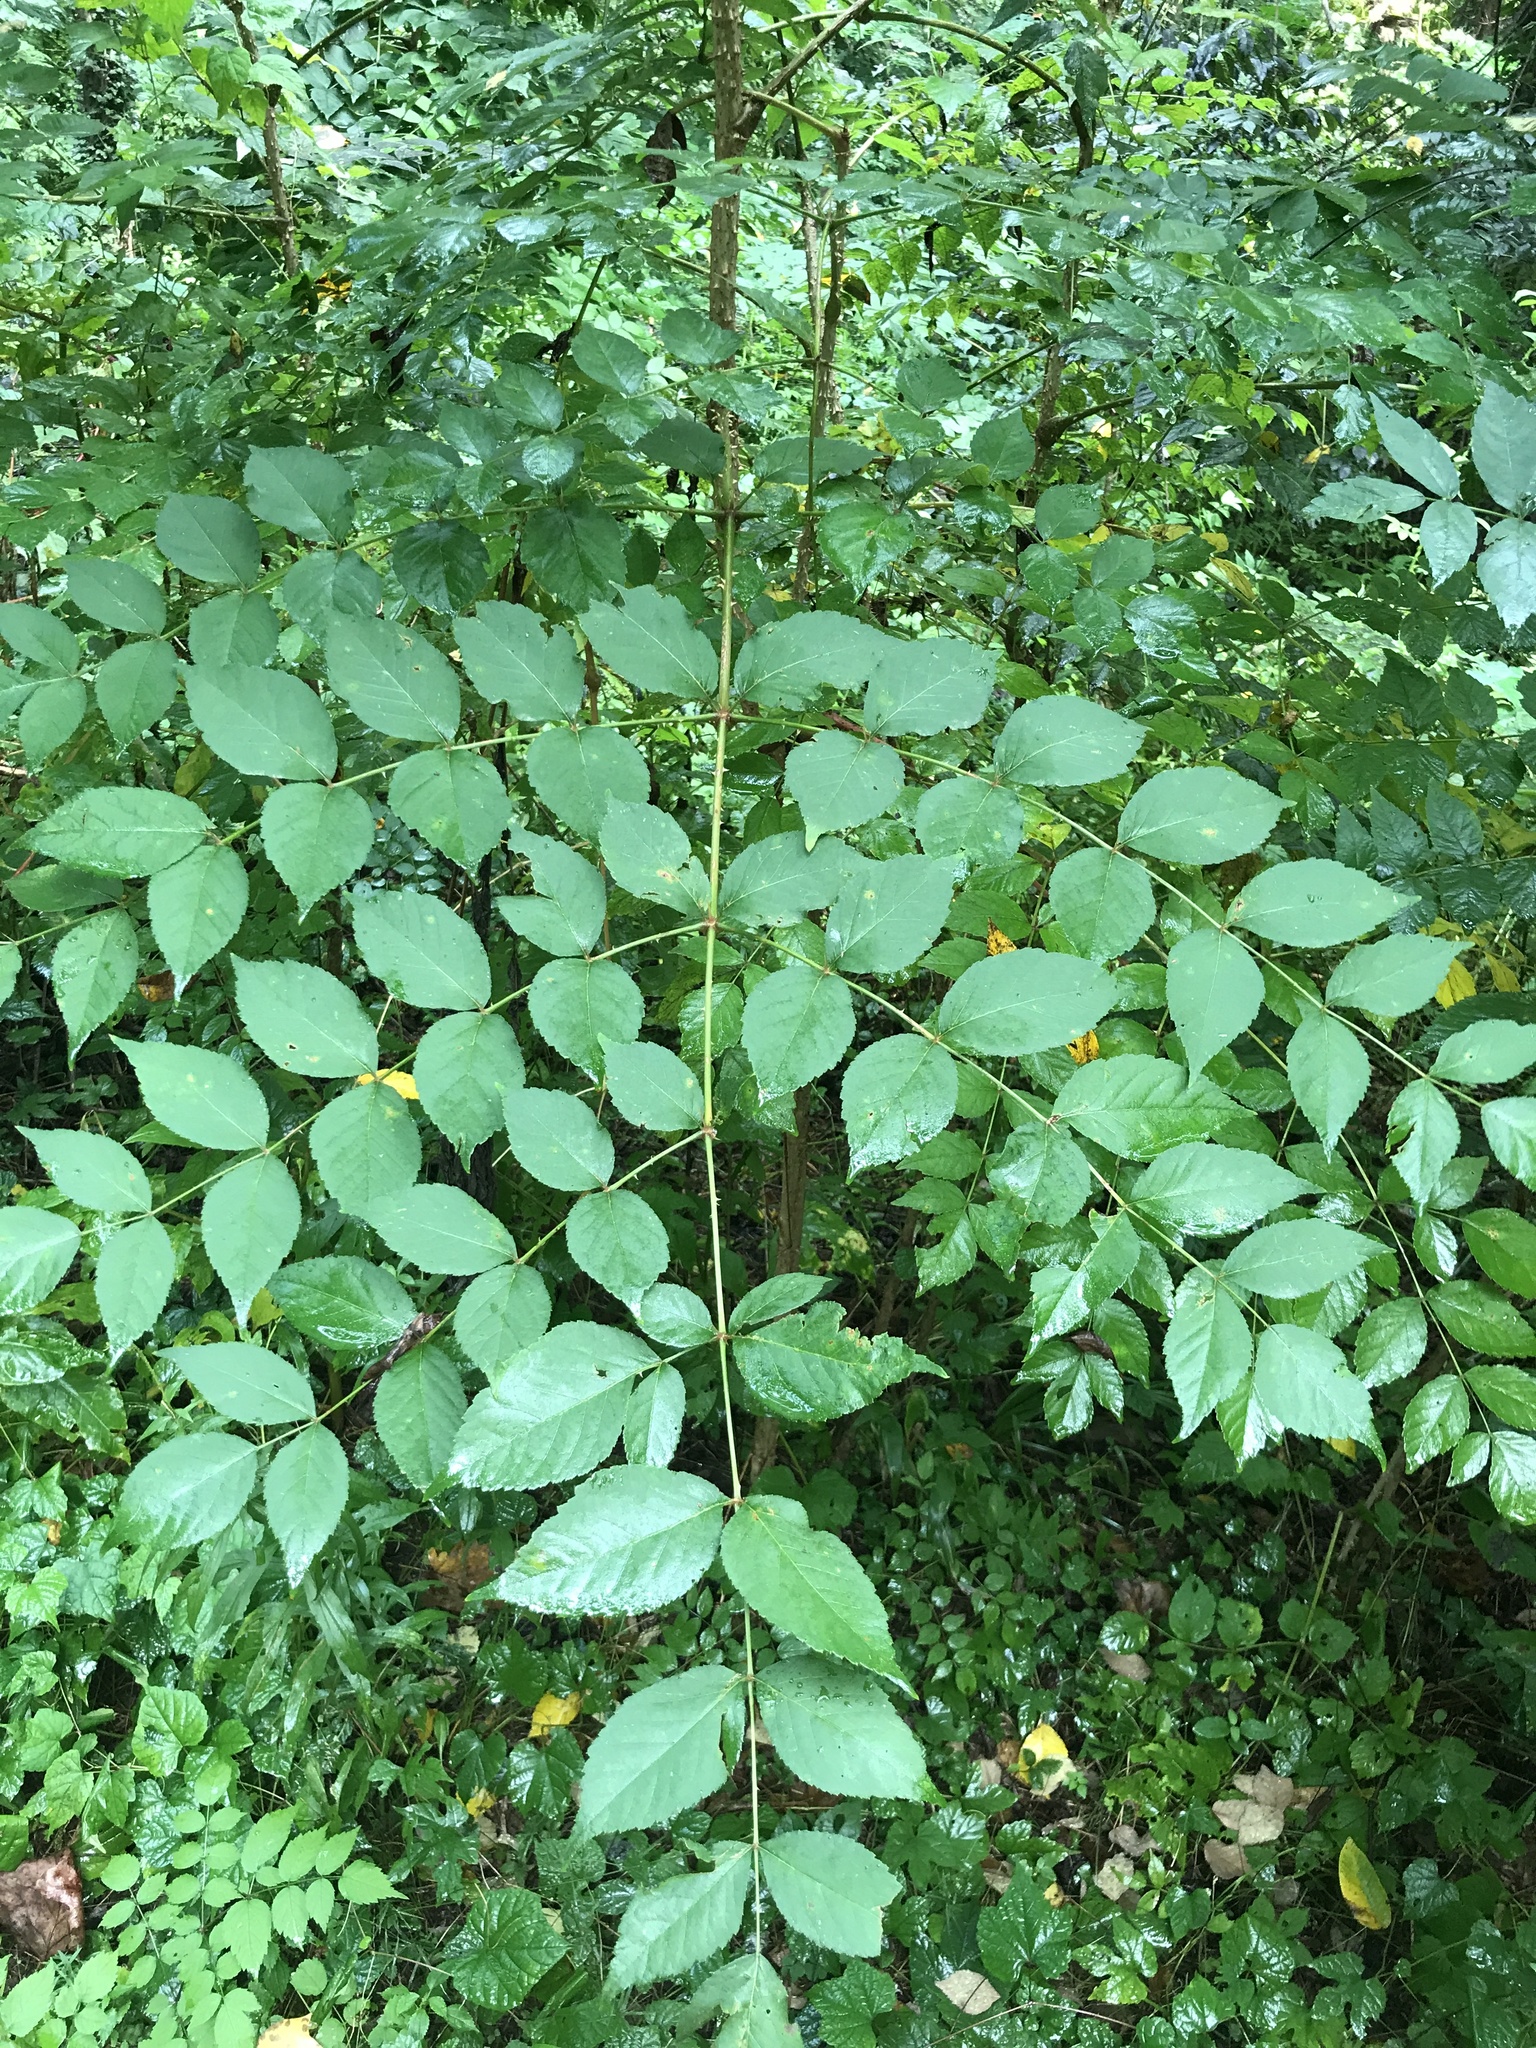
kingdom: Plantae
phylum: Tracheophyta
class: Magnoliopsida
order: Apiales
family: Araliaceae
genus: Aralia
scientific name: Aralia elata
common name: Japanese angelica-tree
